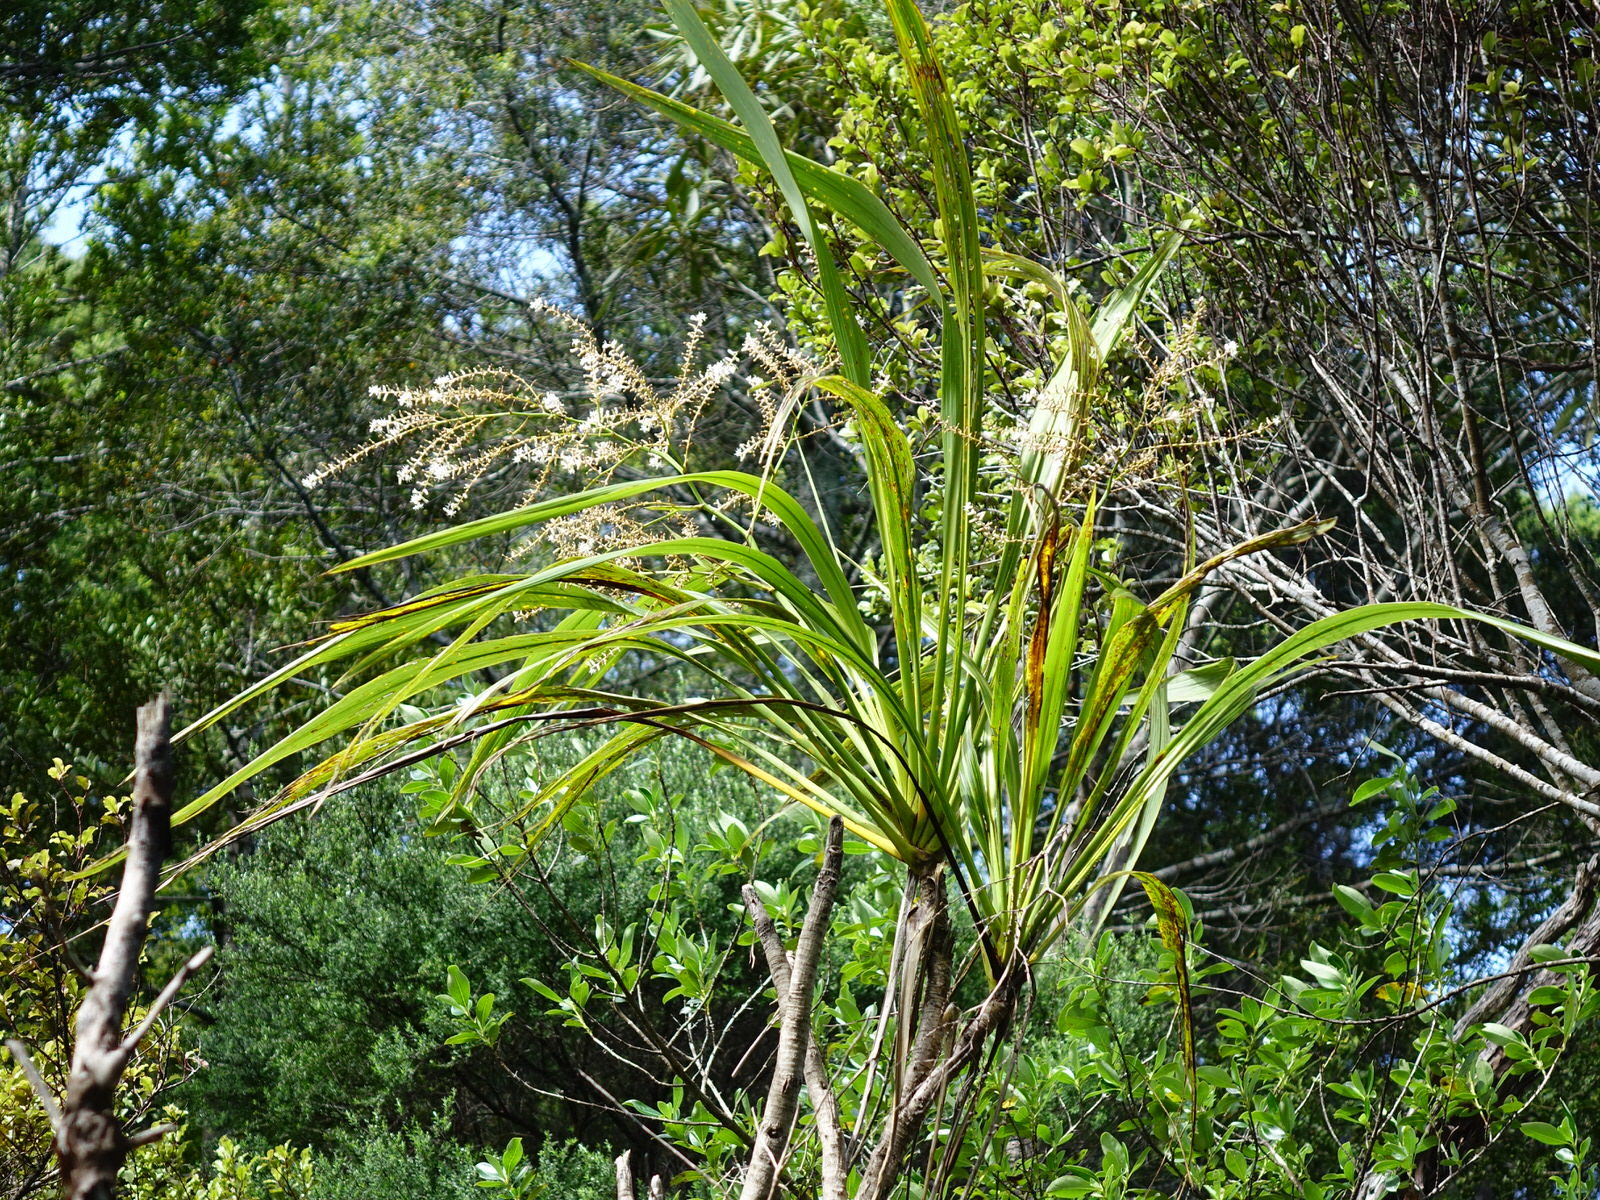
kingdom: Plantae
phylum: Tracheophyta
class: Liliopsida
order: Asparagales
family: Asparagaceae
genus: Cordyline
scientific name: Cordyline banksii
